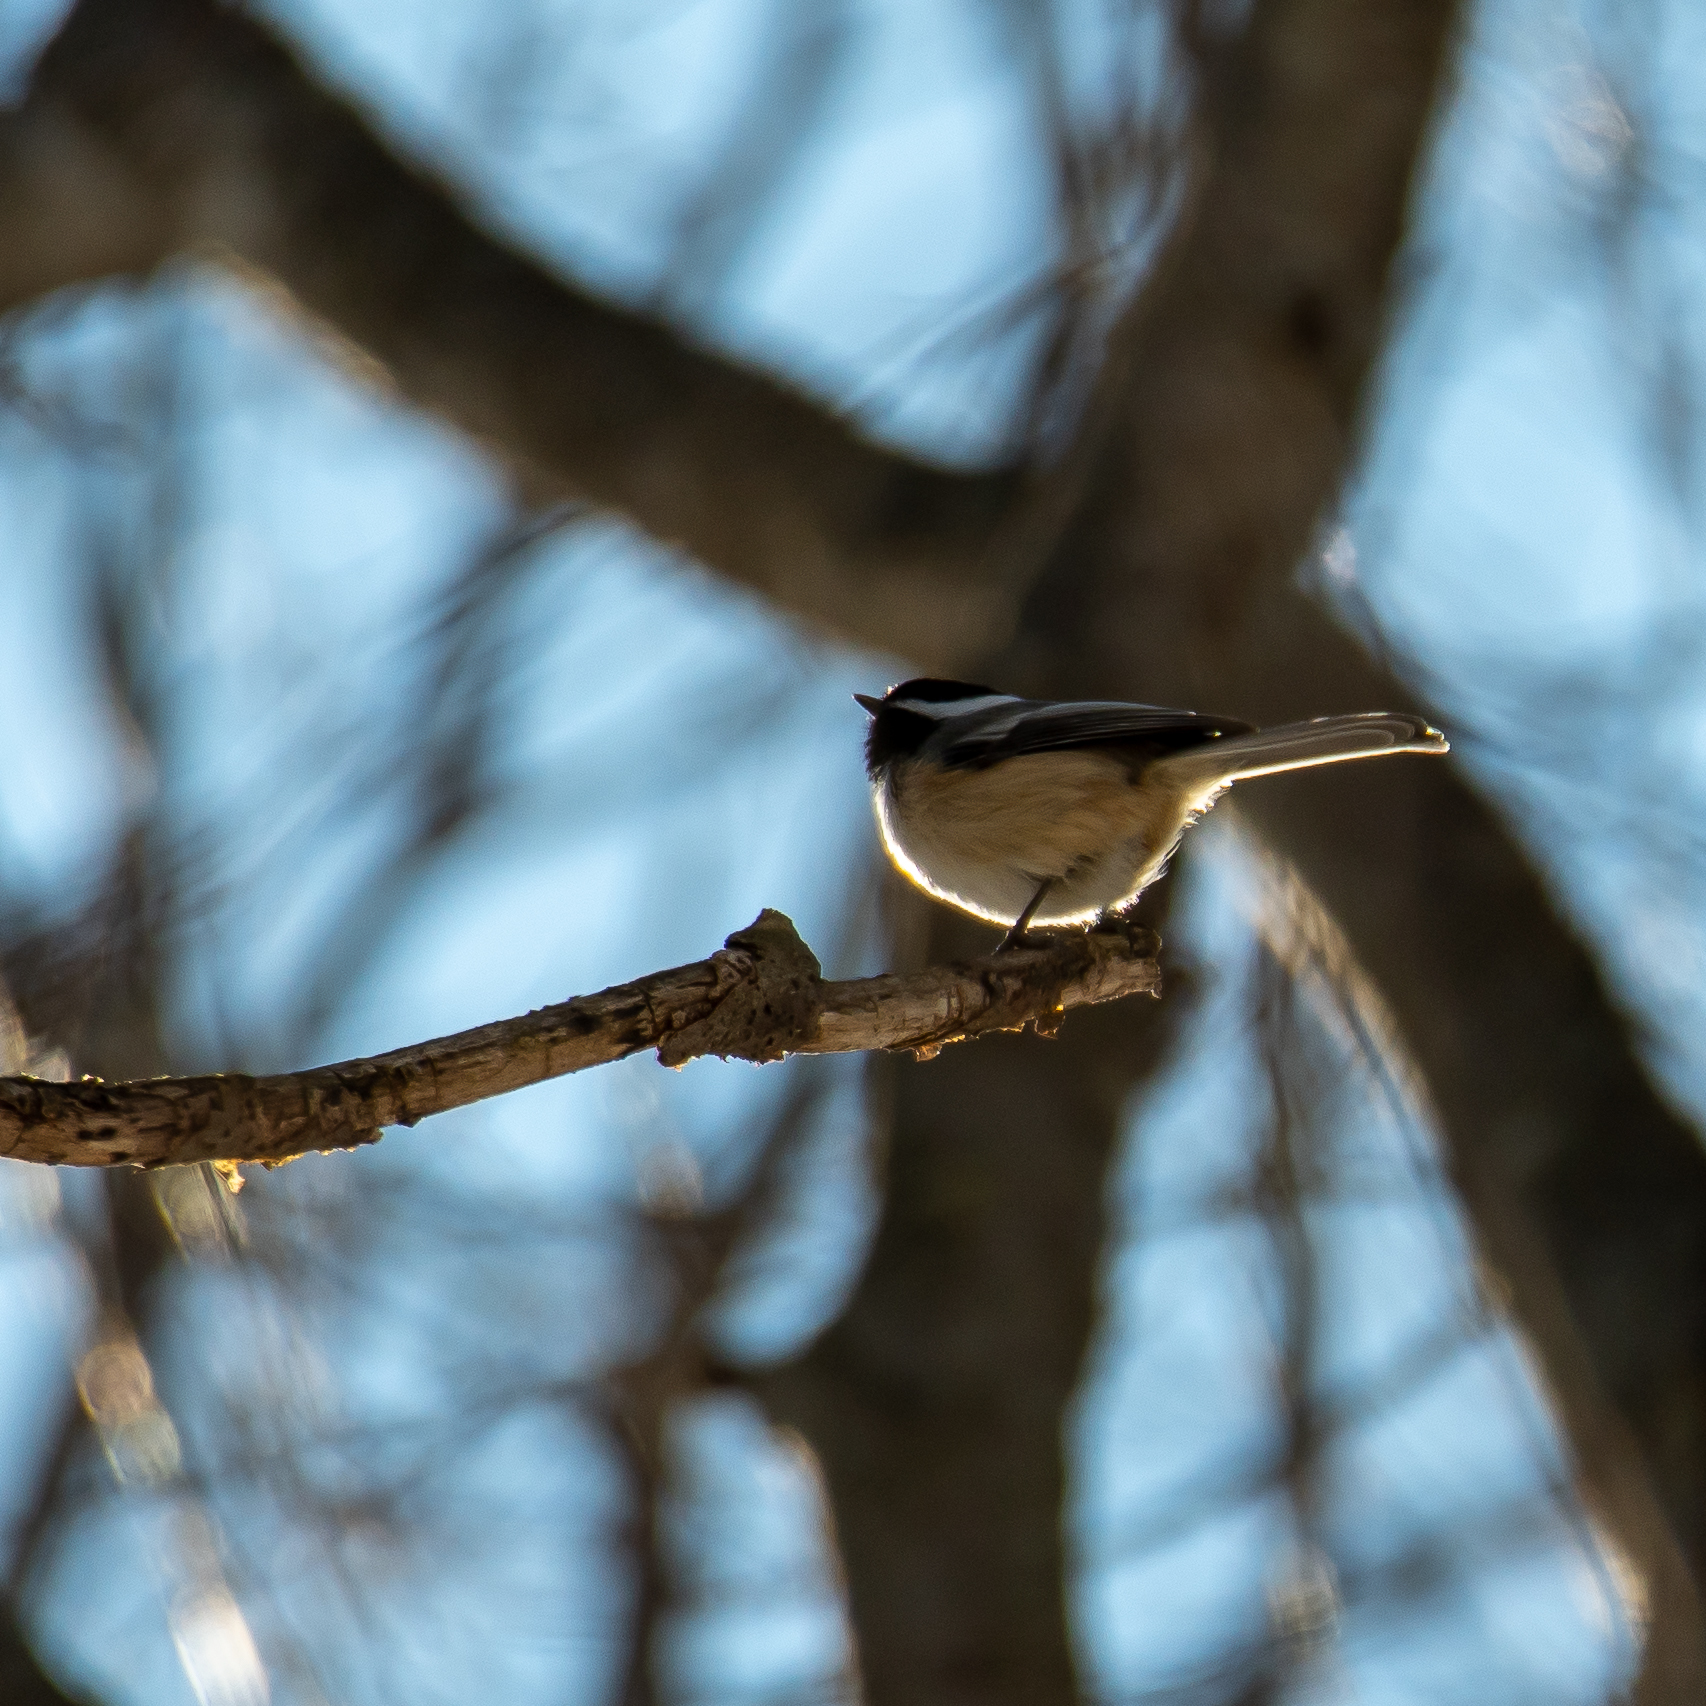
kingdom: Animalia
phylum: Chordata
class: Aves
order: Passeriformes
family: Paridae
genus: Poecile
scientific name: Poecile atricapillus
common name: Black-capped chickadee
